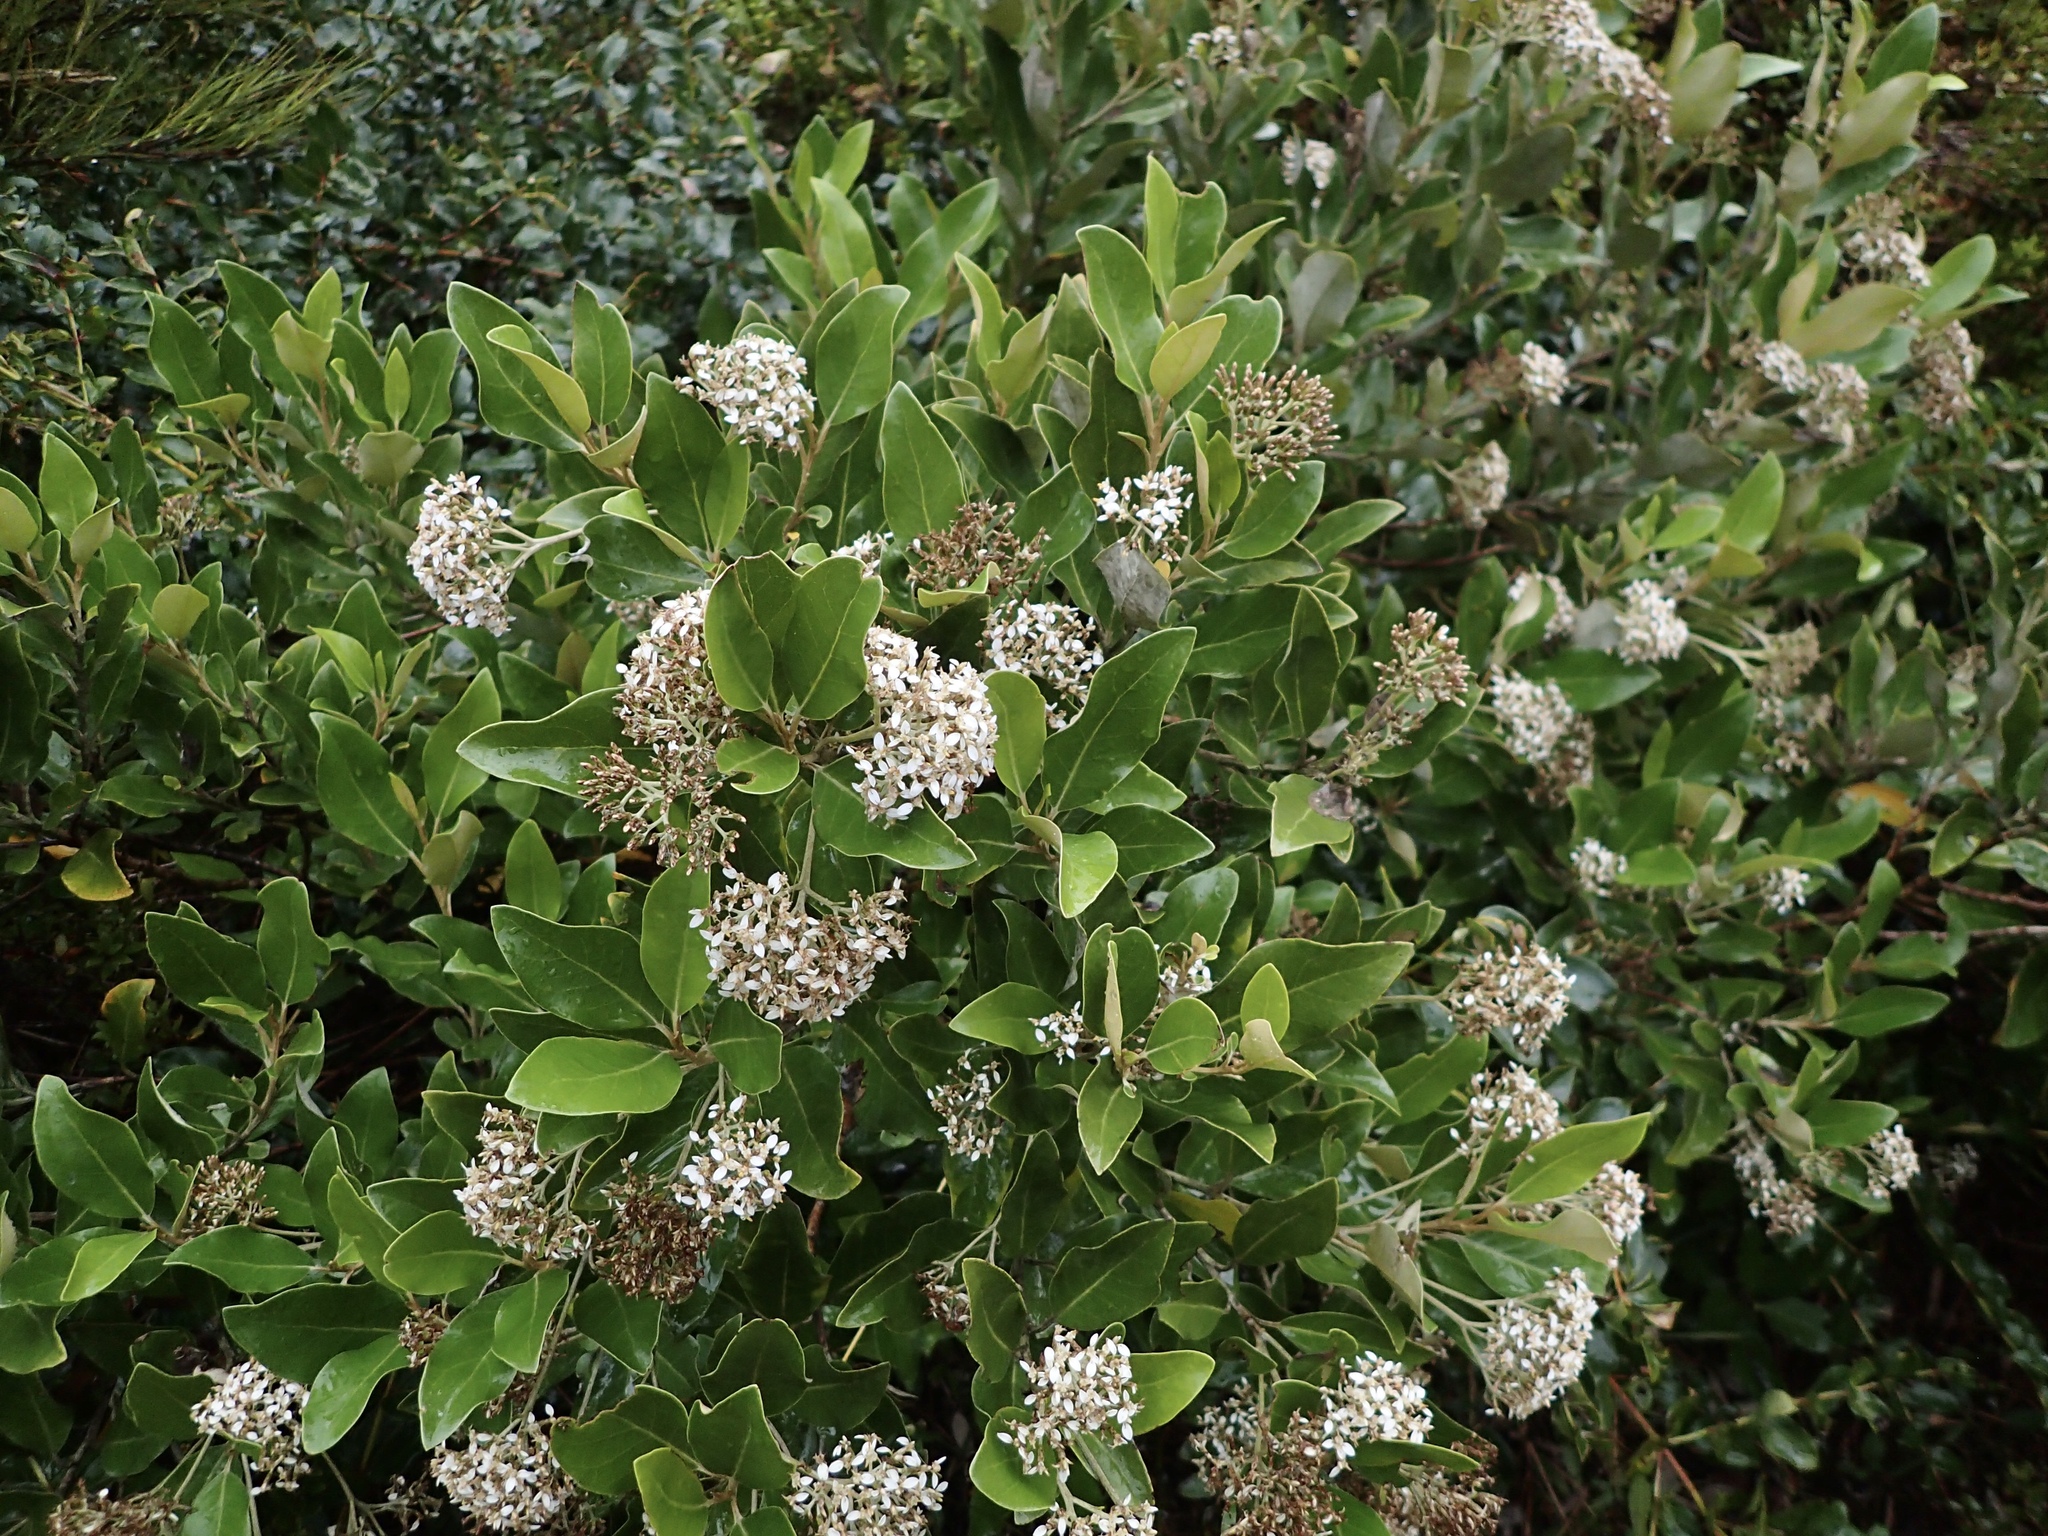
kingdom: Plantae
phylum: Tracheophyta
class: Magnoliopsida
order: Asterales
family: Asteraceae
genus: Olearia
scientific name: Olearia avicenniifolia
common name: Mangrove-leaf daisybush
